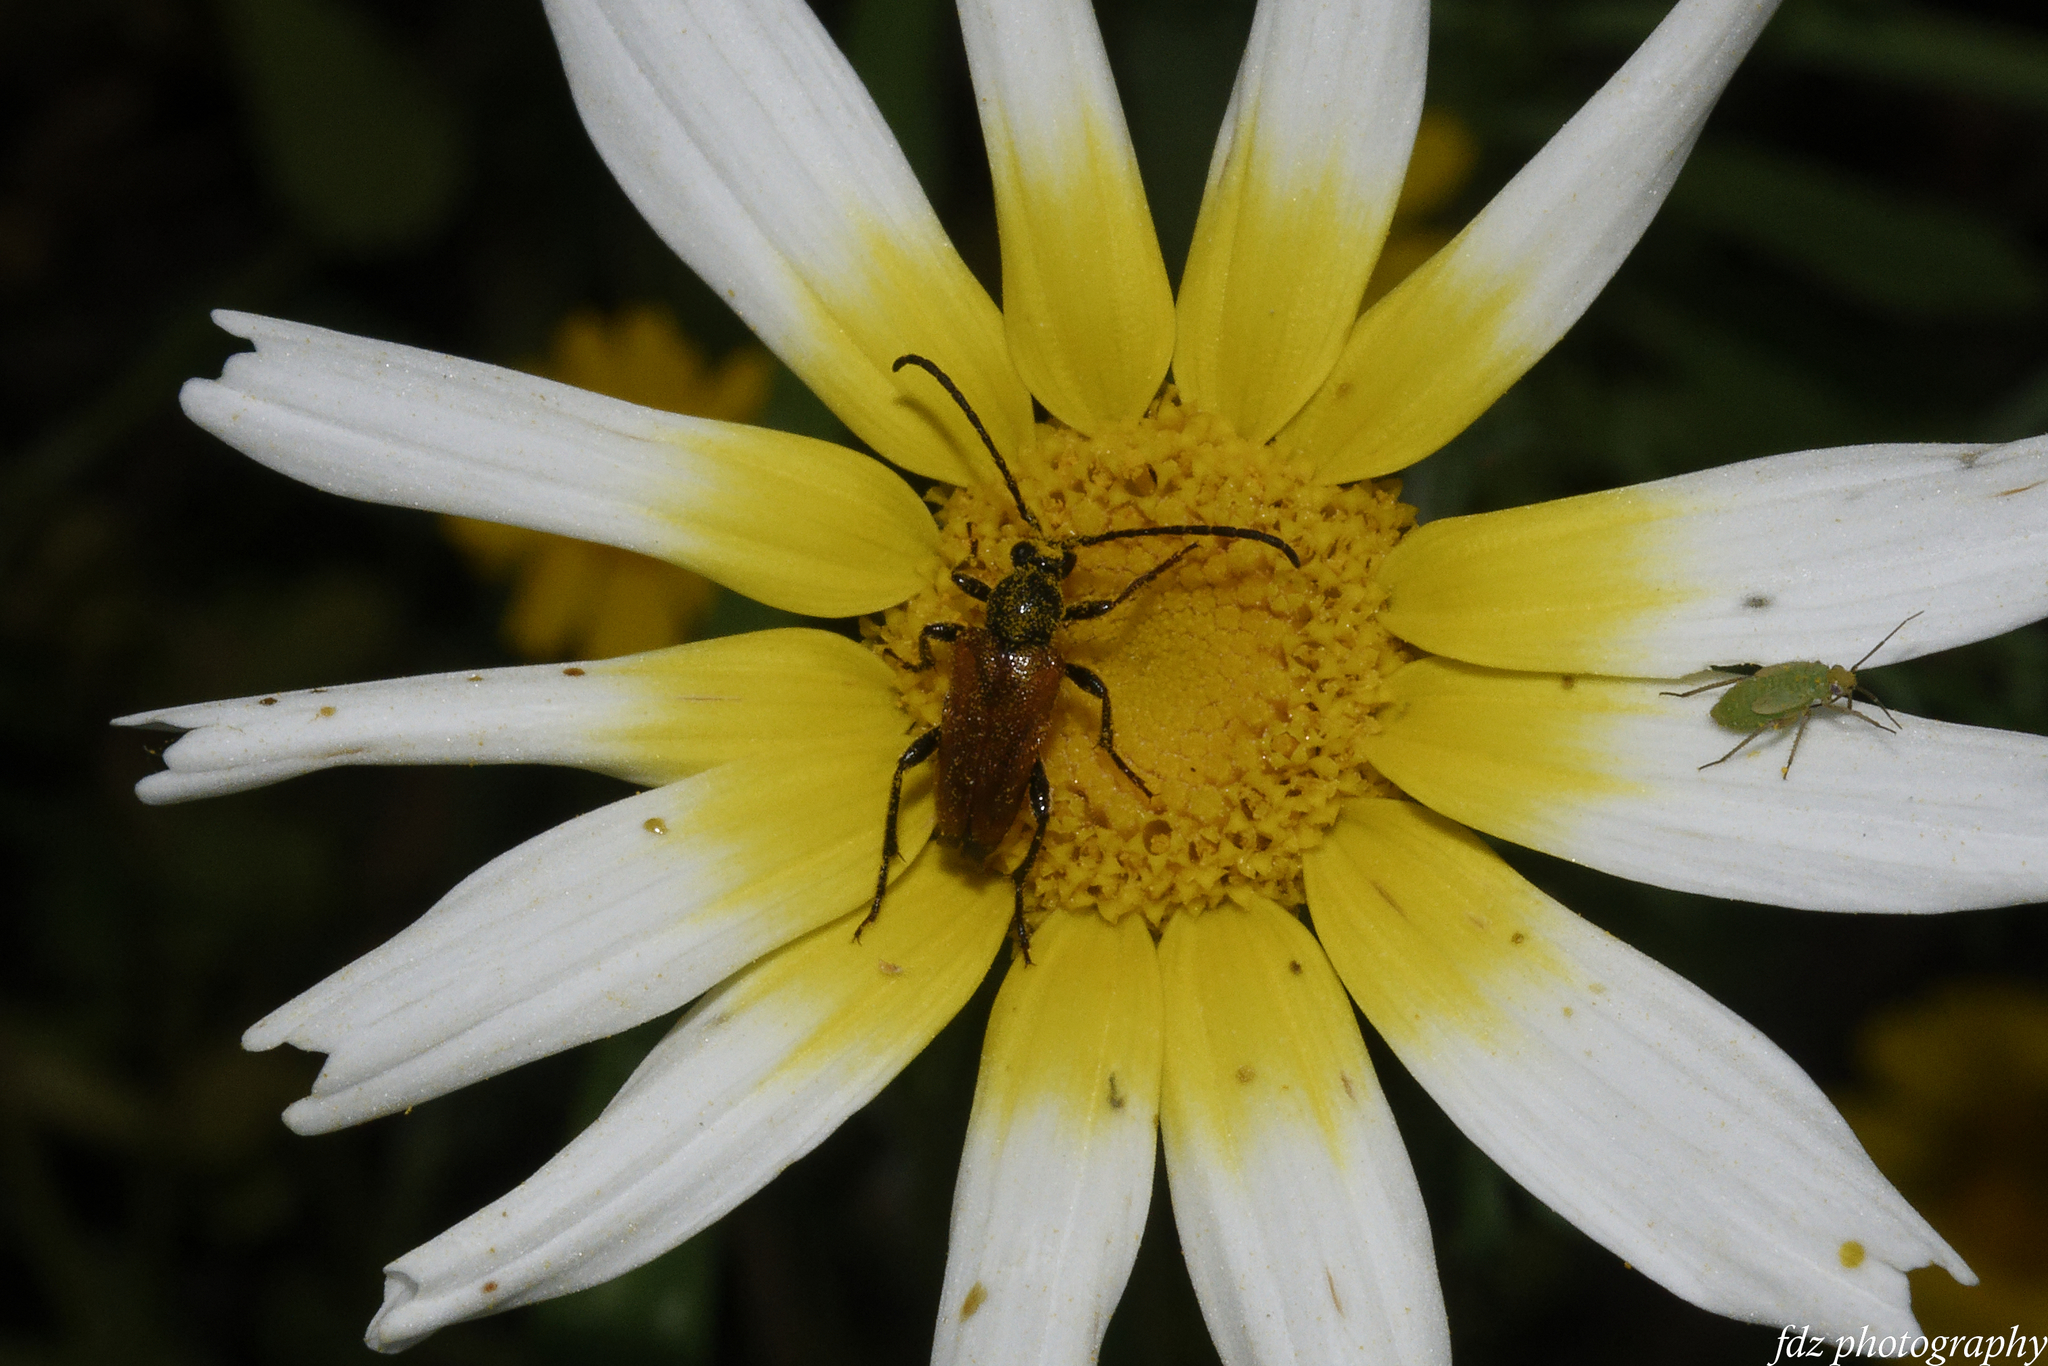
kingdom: Animalia
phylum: Arthropoda
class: Insecta
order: Coleoptera
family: Cerambycidae
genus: Pseudovadonia
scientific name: Pseudovadonia livida
